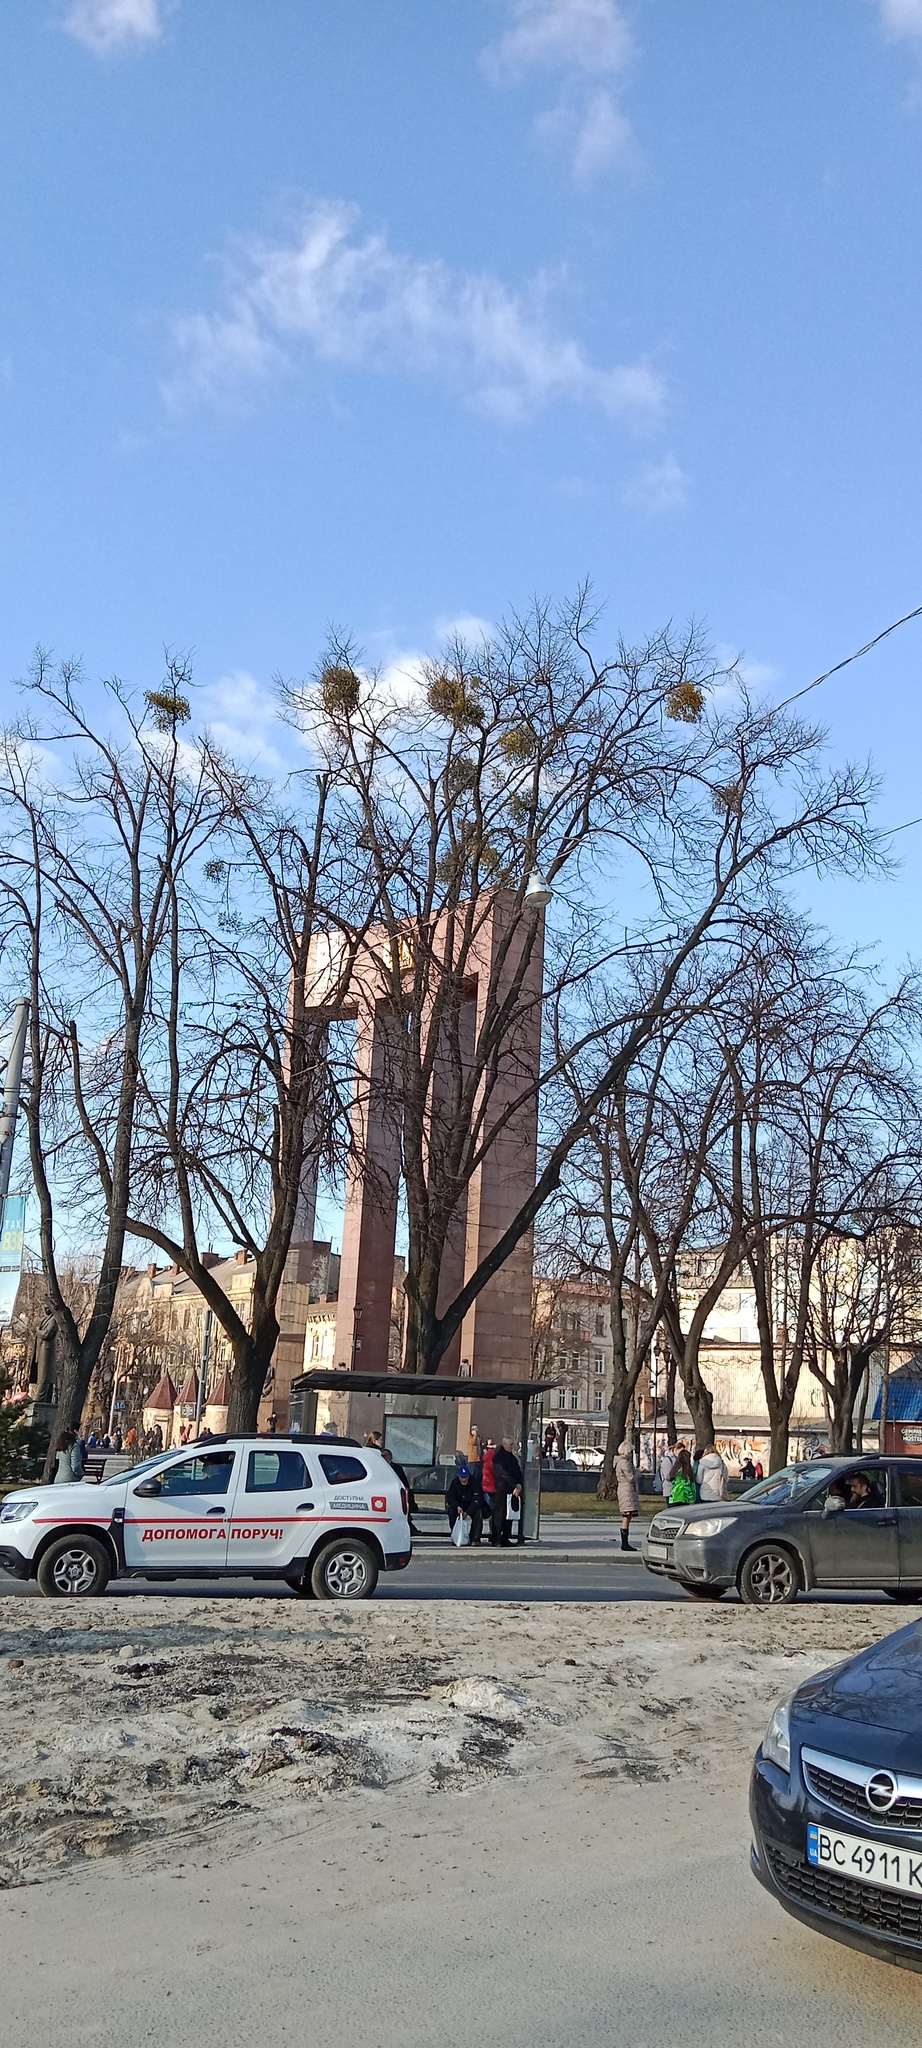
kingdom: Plantae
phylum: Tracheophyta
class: Magnoliopsida
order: Santalales
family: Viscaceae
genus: Viscum
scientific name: Viscum album
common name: Mistletoe
